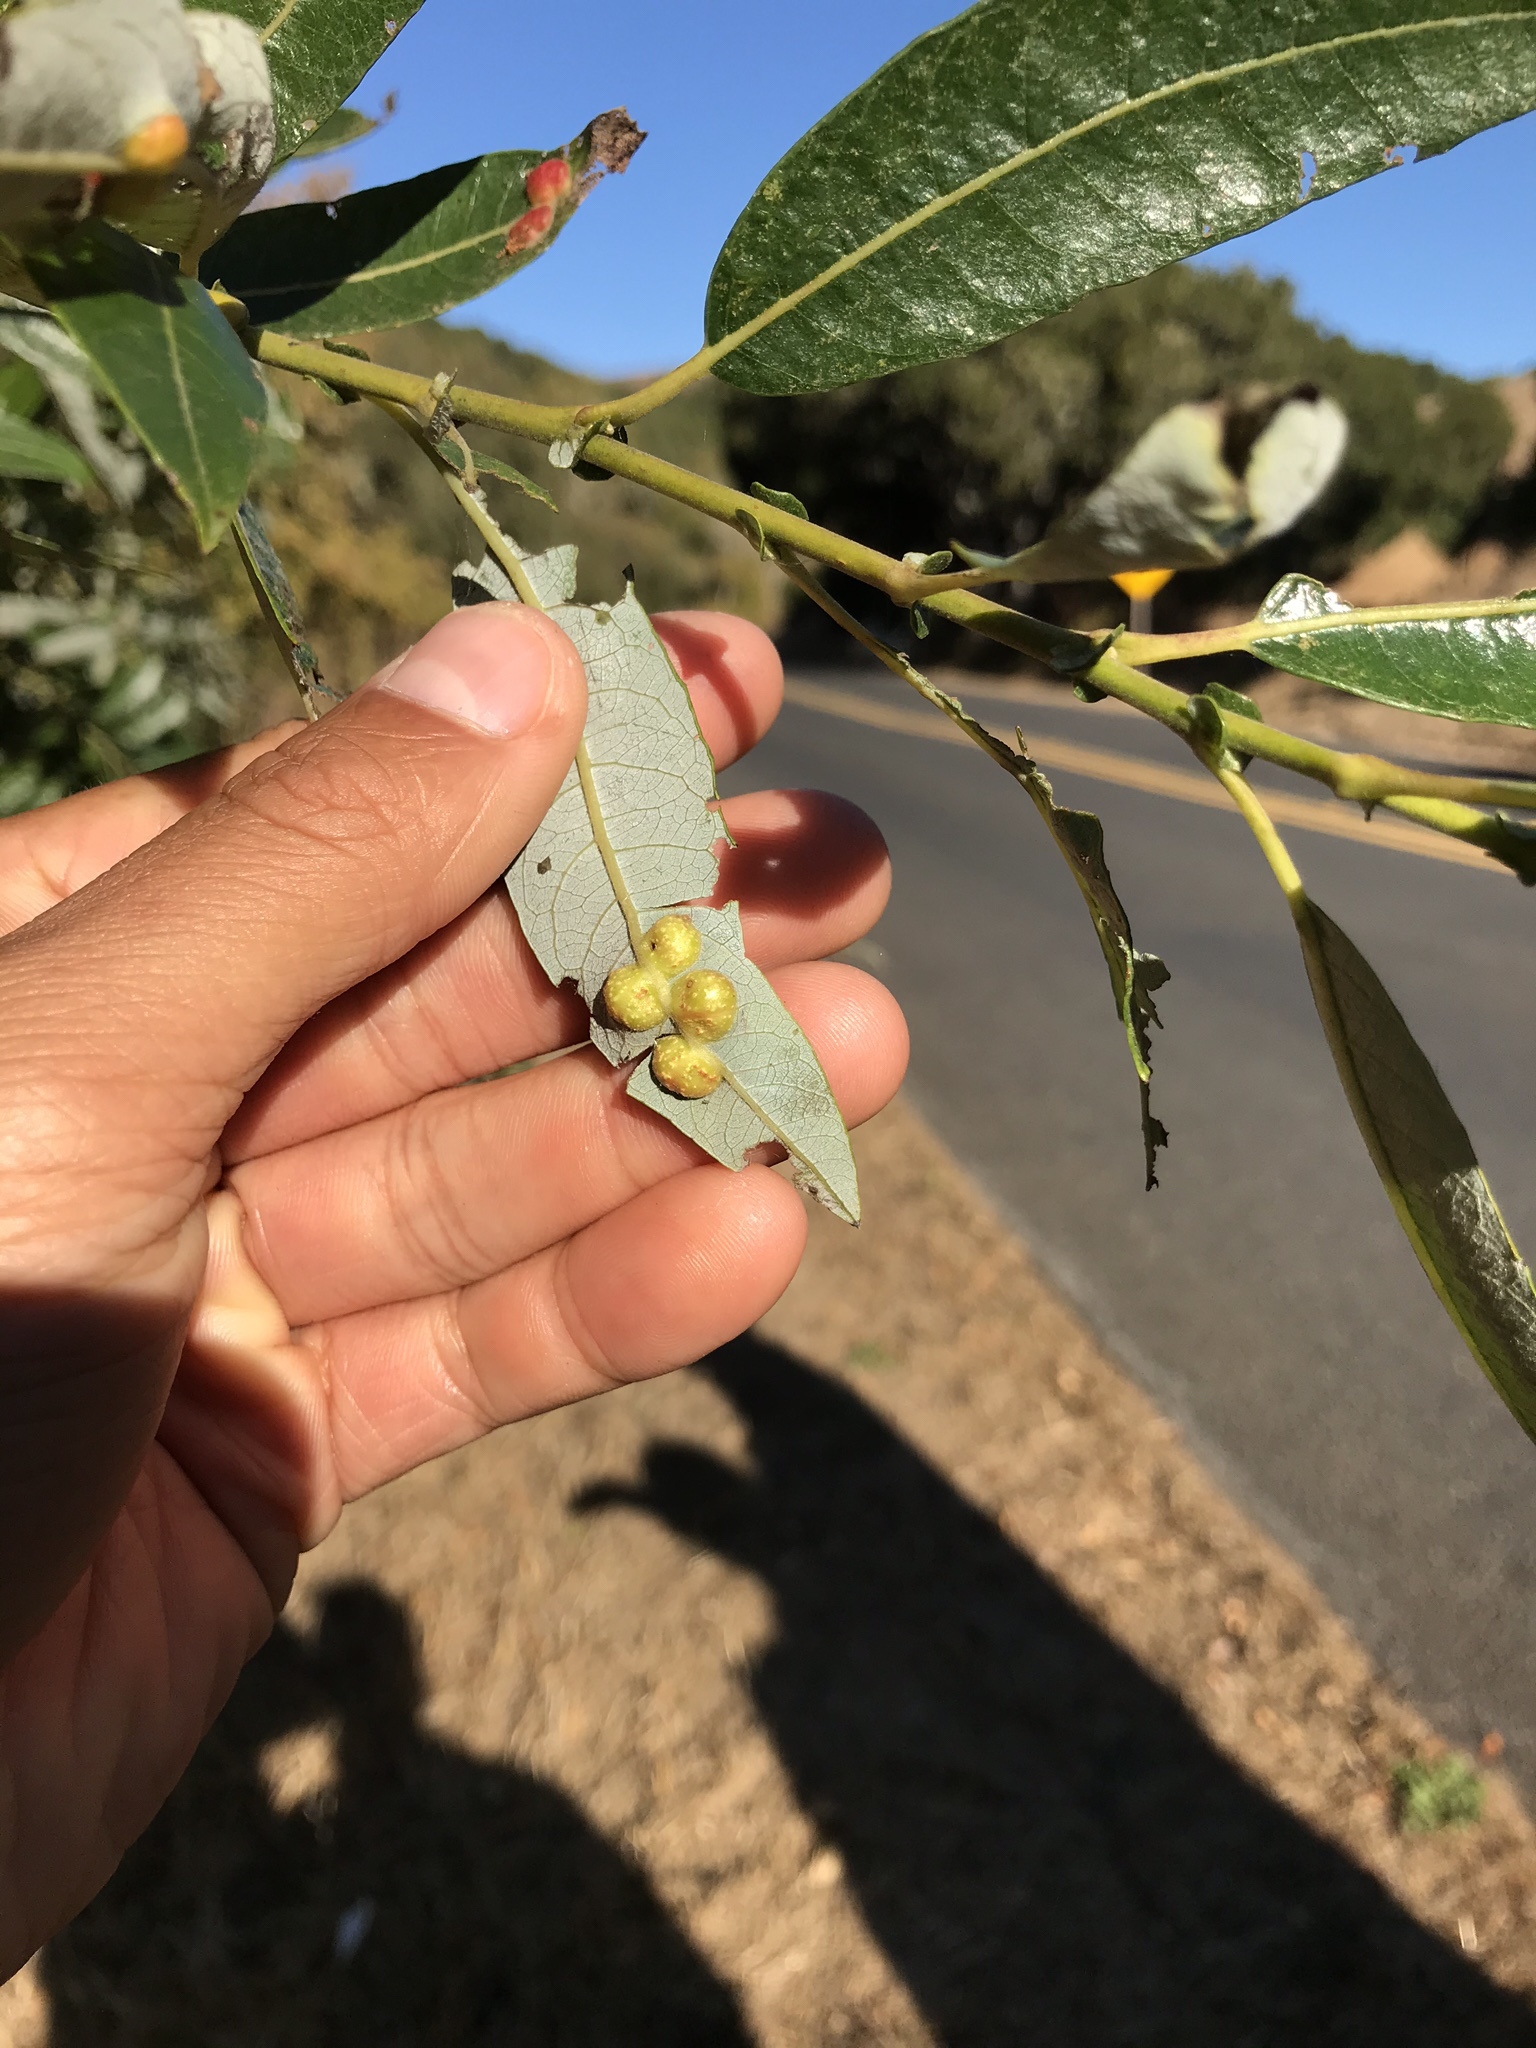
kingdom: Animalia
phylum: Arthropoda
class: Insecta
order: Hymenoptera
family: Tenthredinidae
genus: Euura
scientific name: Euura
